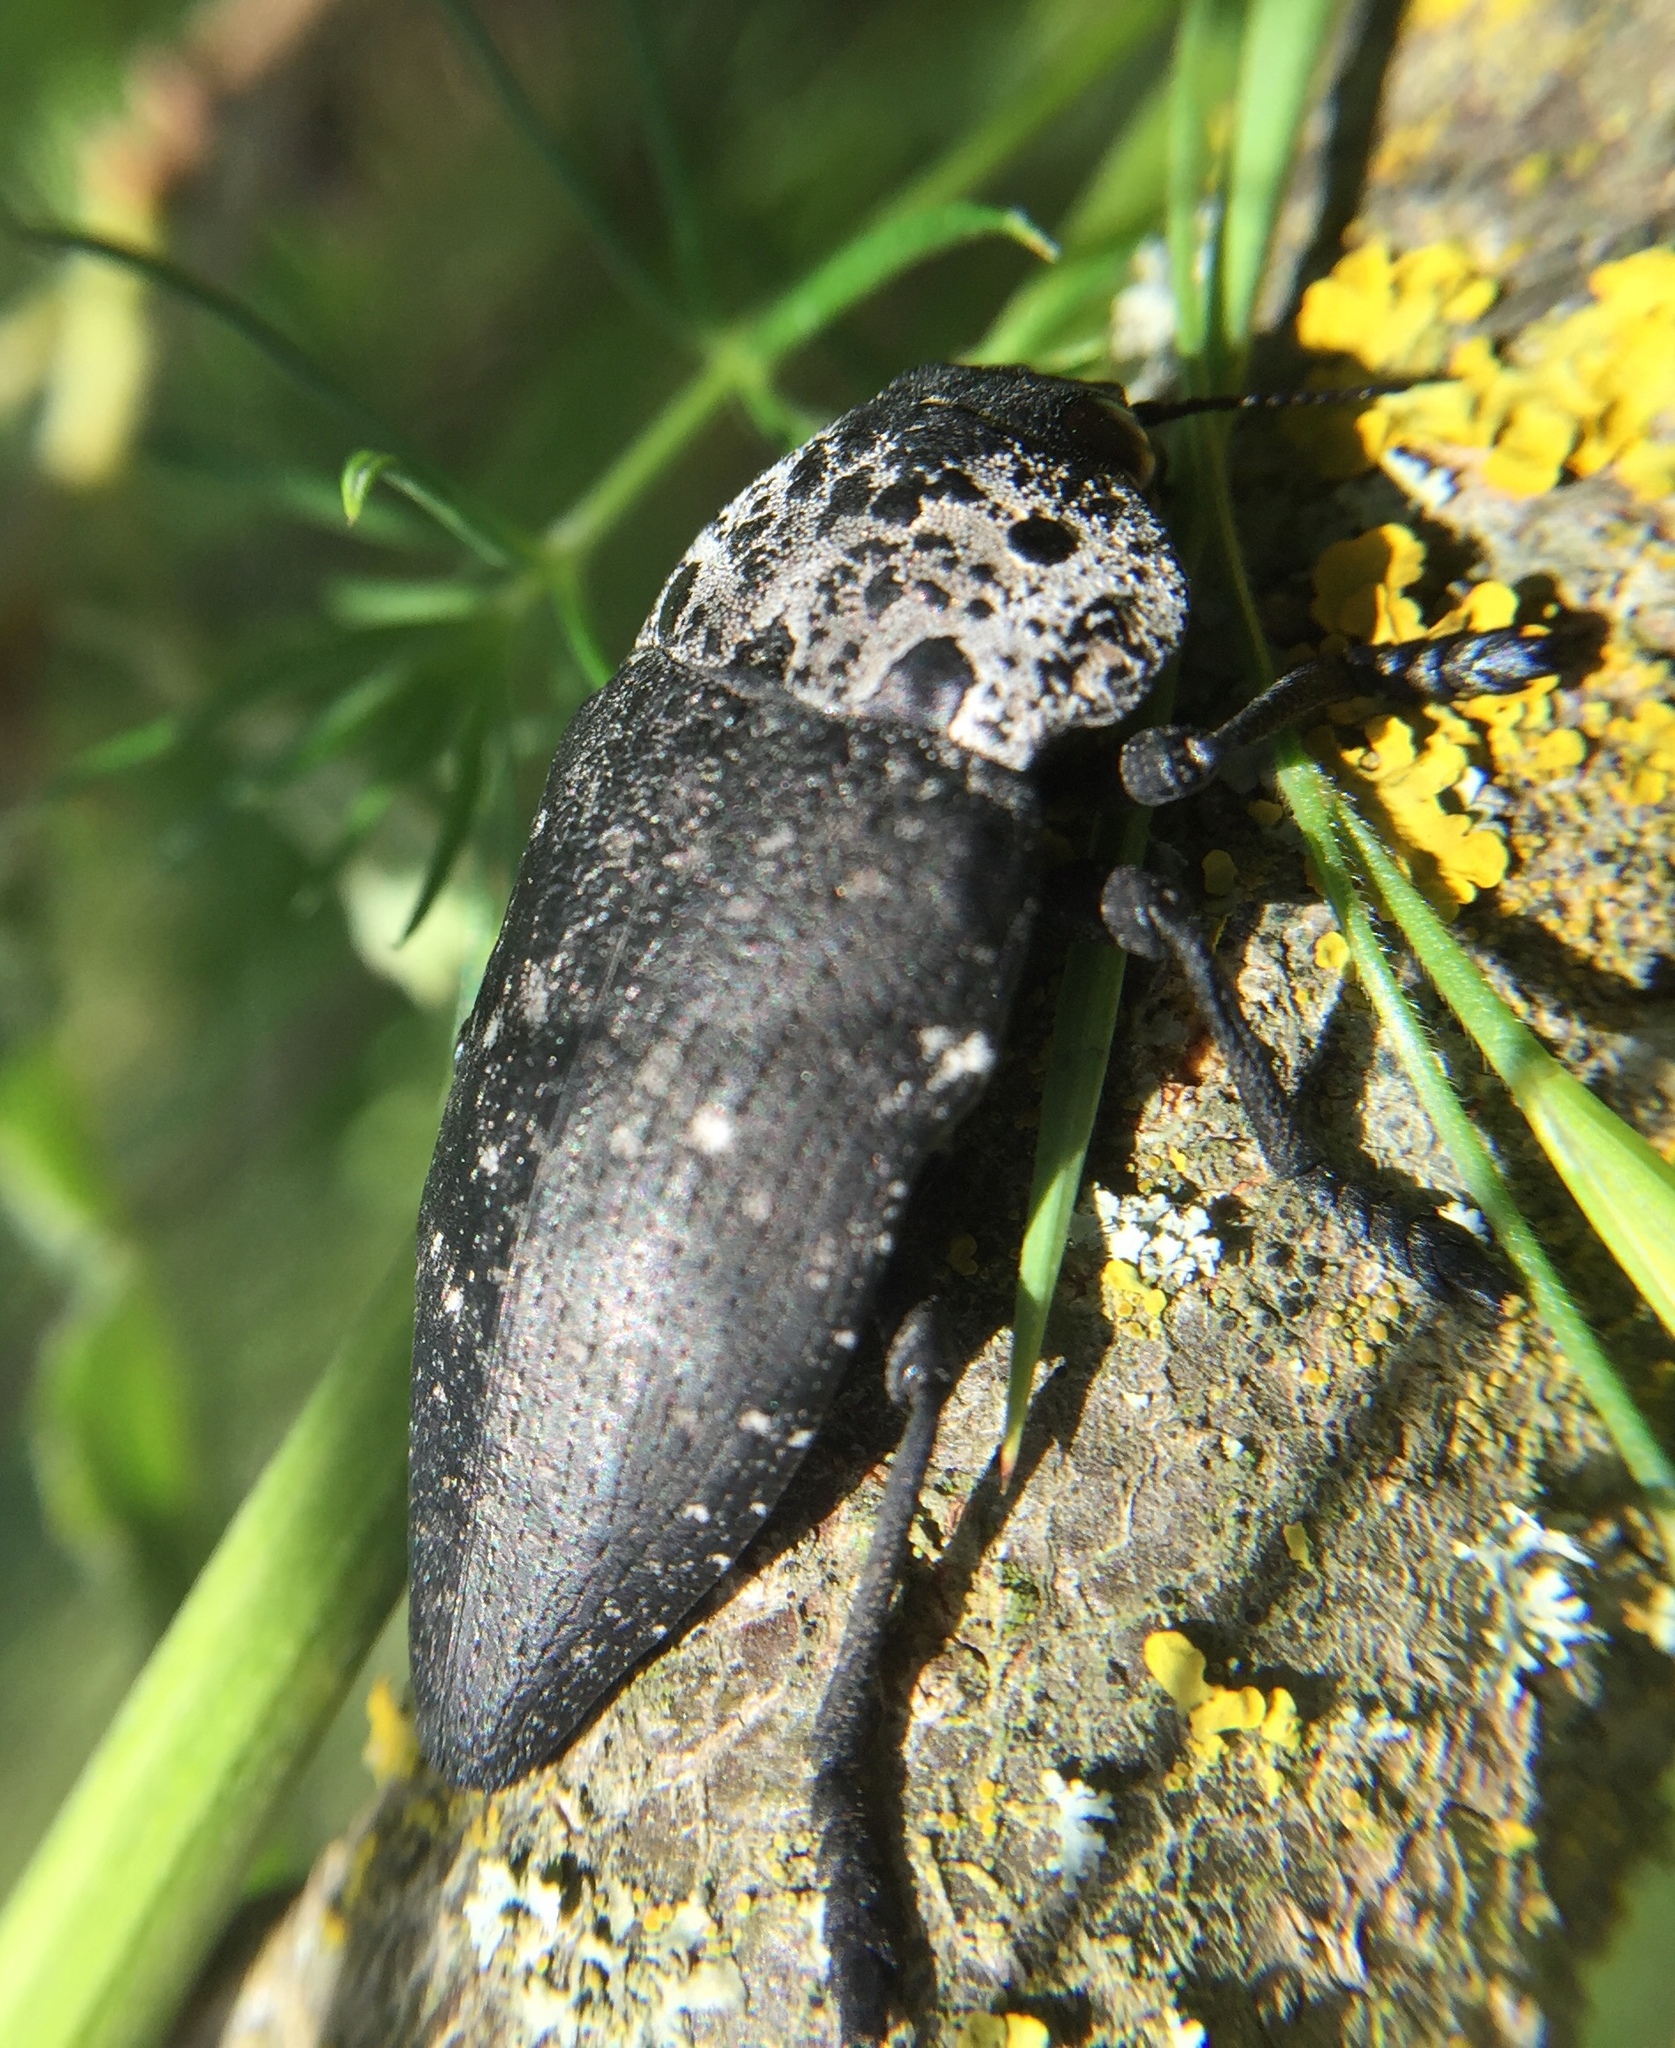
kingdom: Animalia
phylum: Arthropoda
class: Insecta
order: Coleoptera
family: Buprestidae
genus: Capnodis
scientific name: Capnodis tenebrionis
